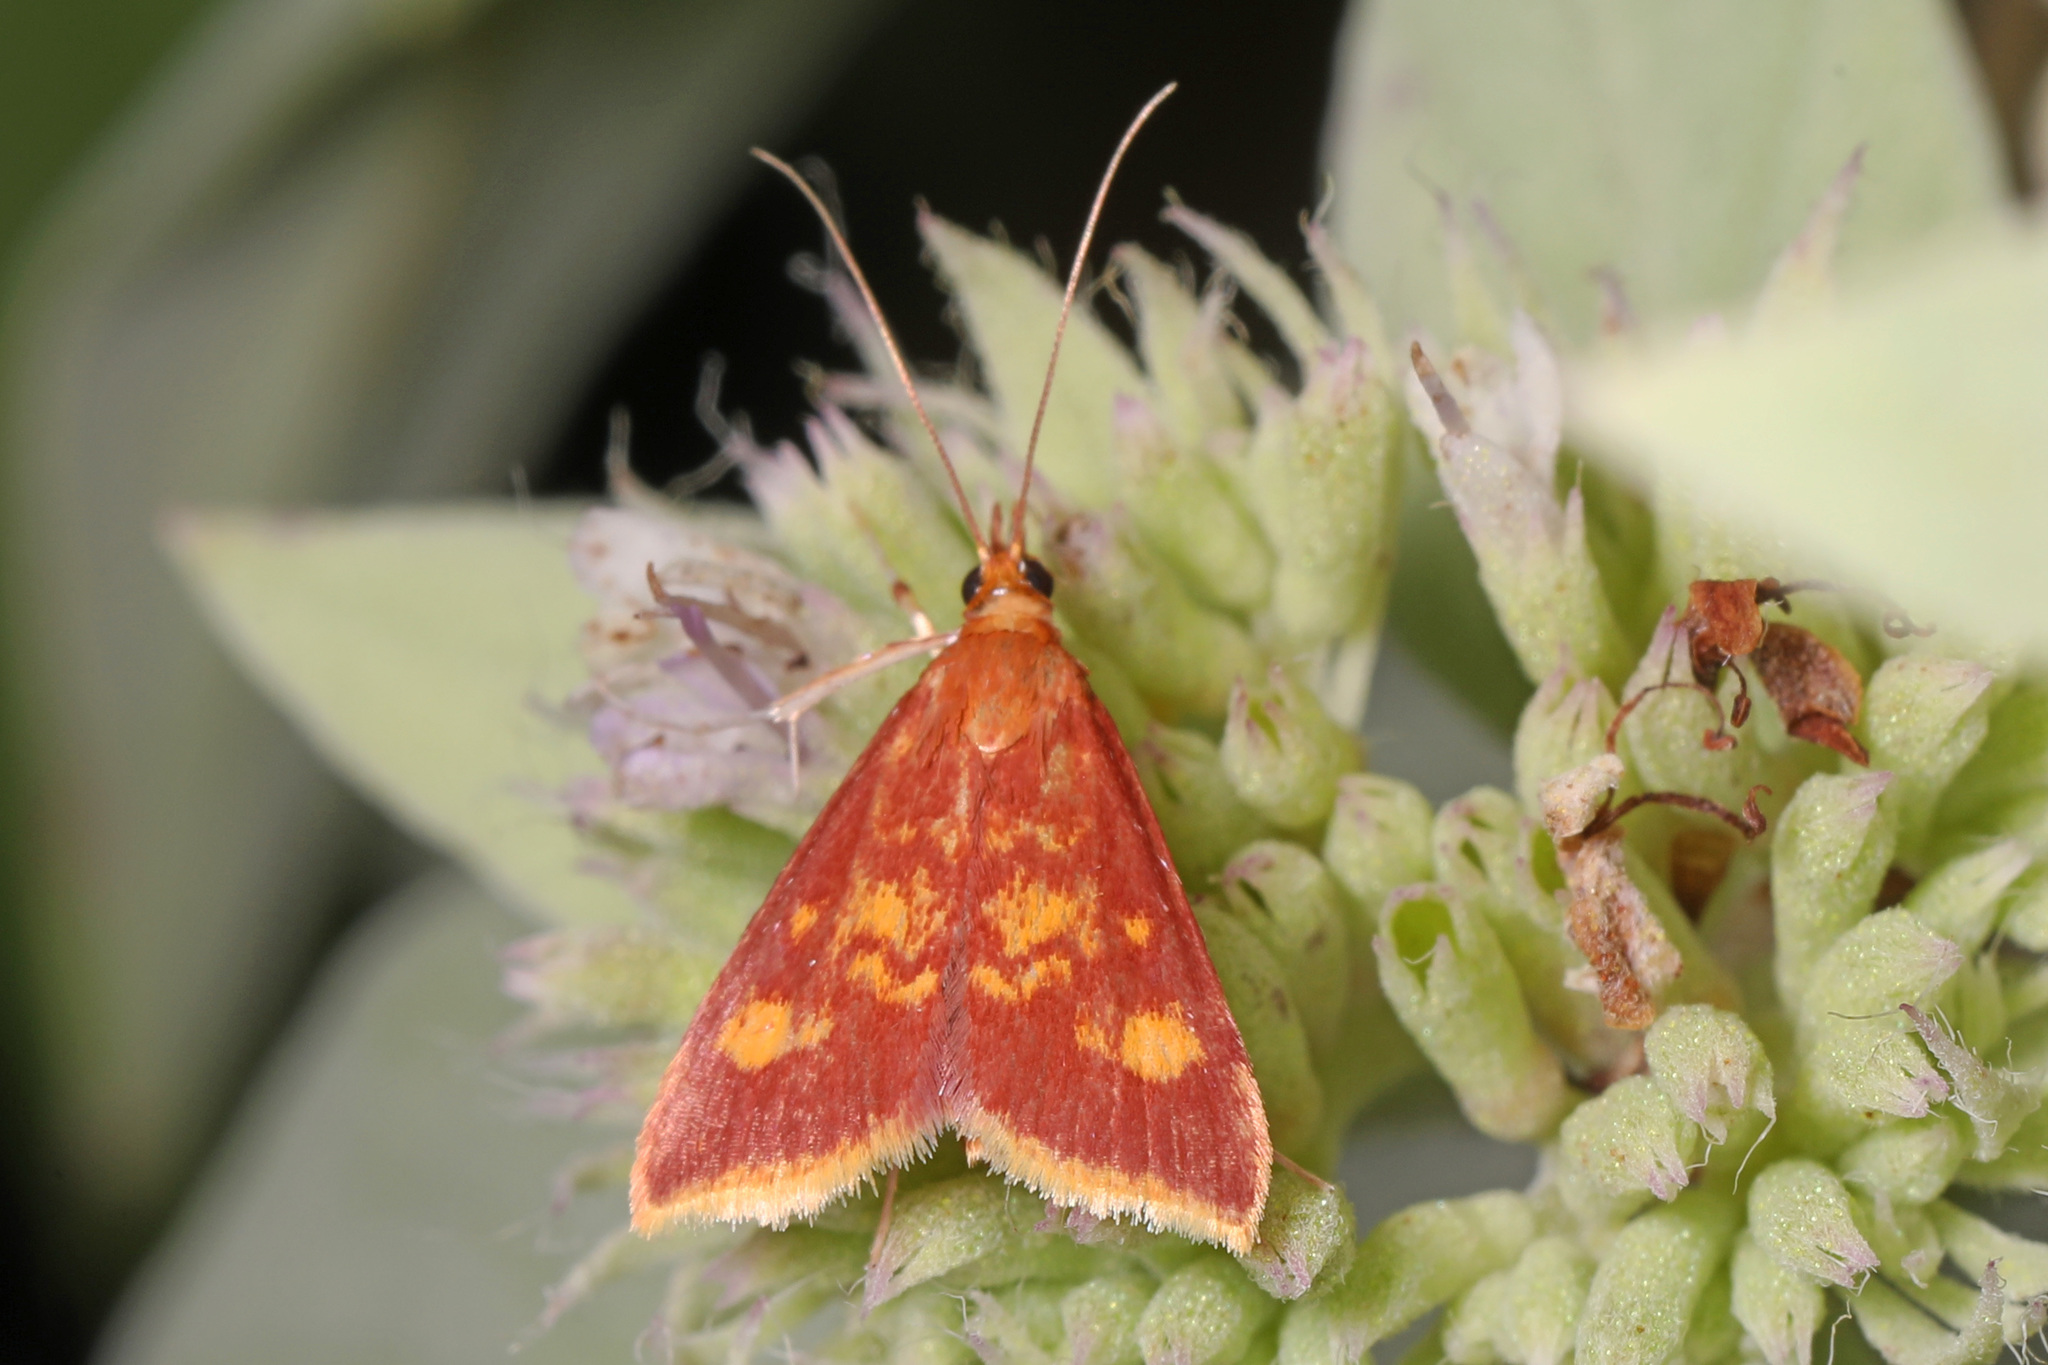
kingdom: Animalia
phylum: Arthropoda
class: Insecta
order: Lepidoptera
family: Crambidae
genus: Pyrausta
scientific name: Pyrausta acrionalis
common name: Mint-loving pyrausta moth
